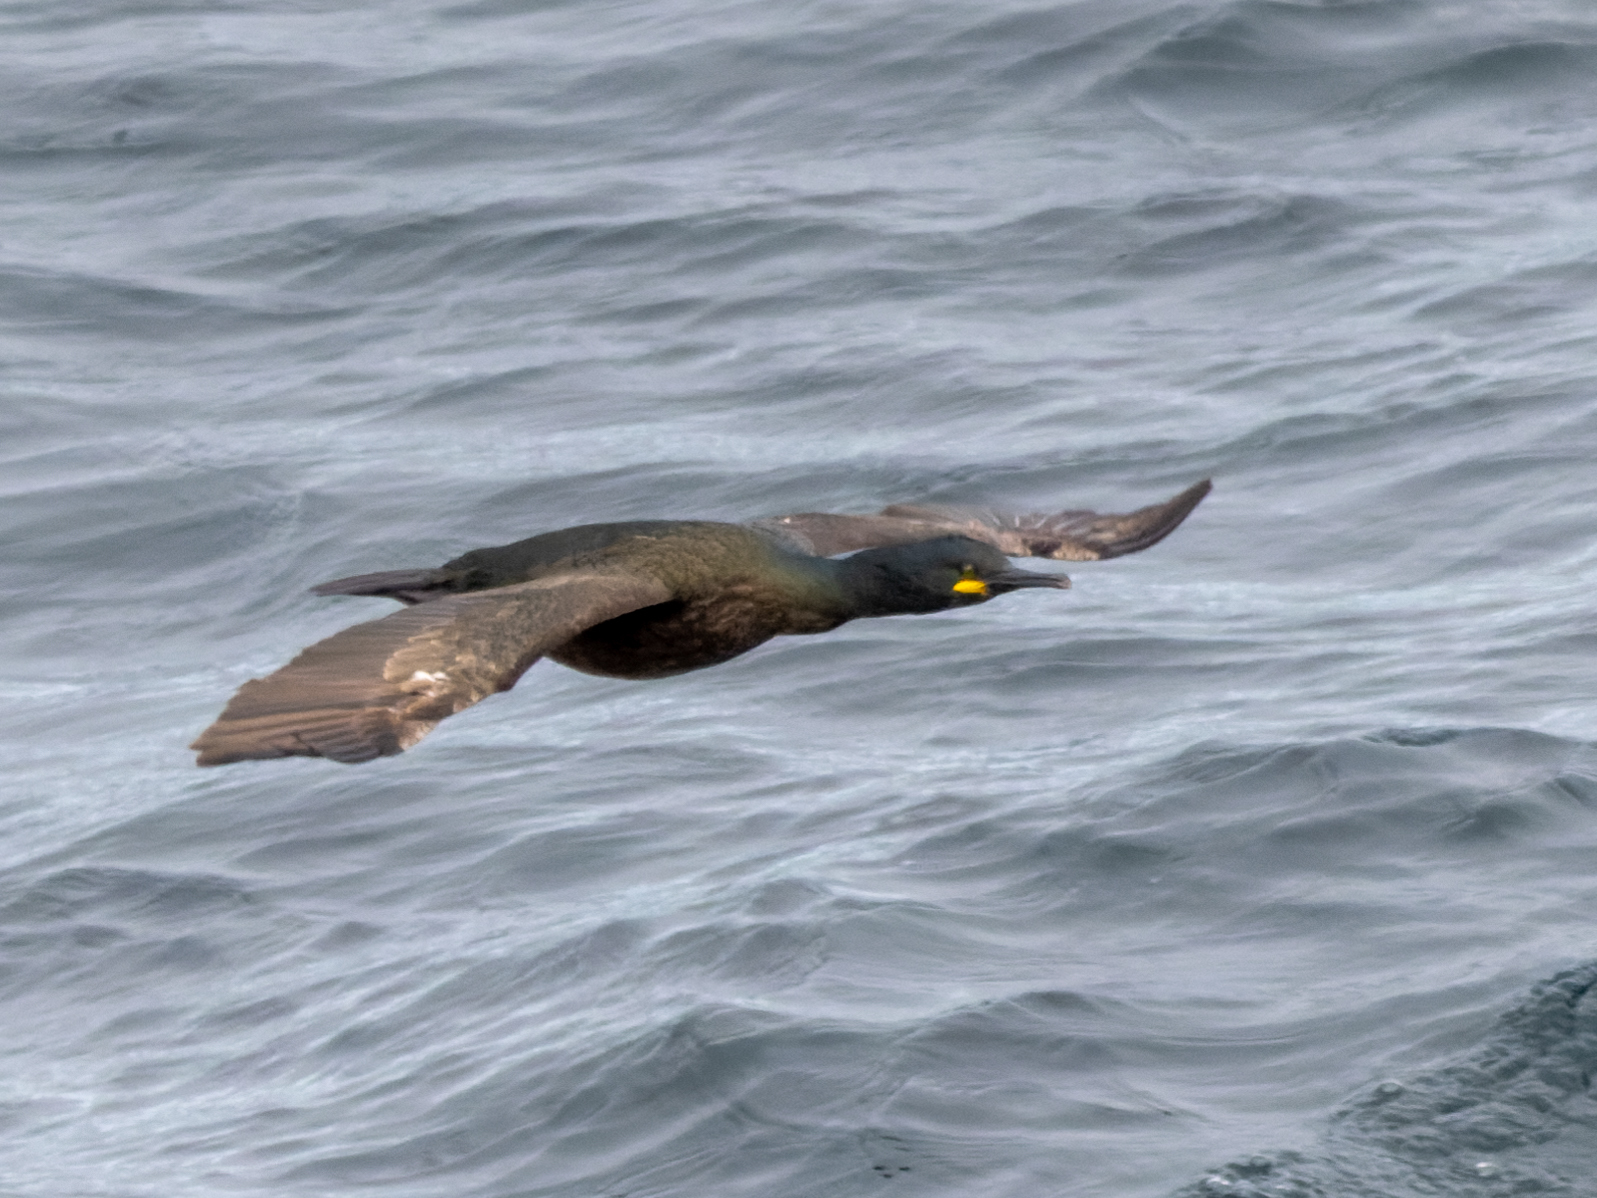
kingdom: Animalia
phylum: Chordata
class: Aves
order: Suliformes
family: Phalacrocoracidae
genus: Phalacrocorax
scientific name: Phalacrocorax aristotelis
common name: European shag
